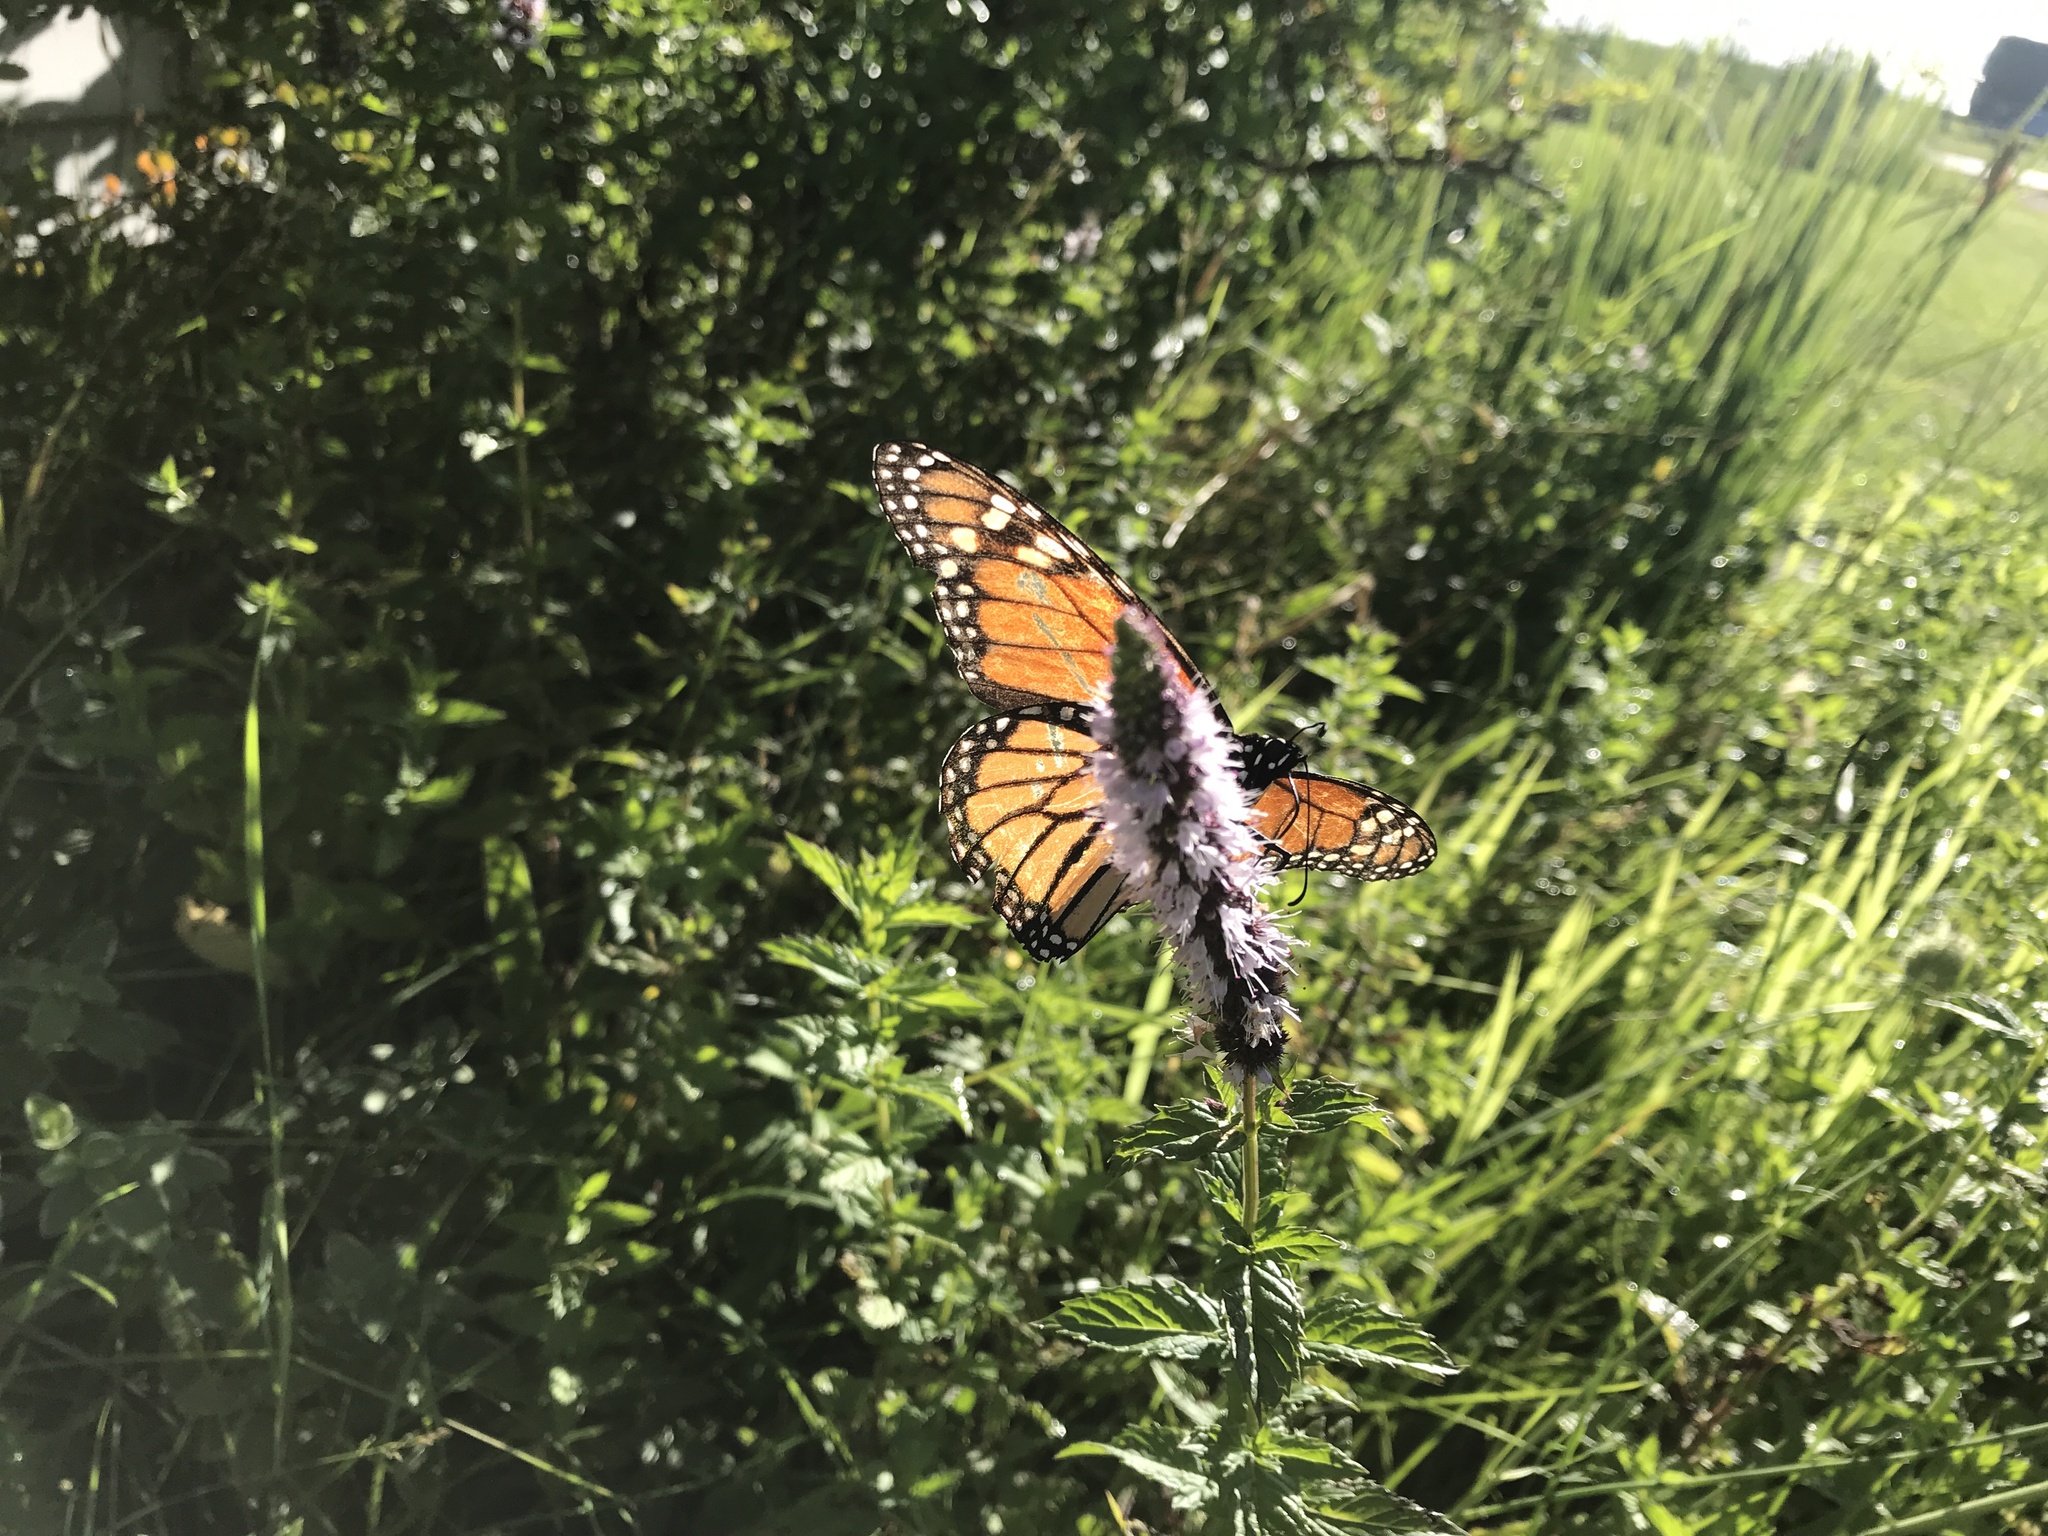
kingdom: Animalia
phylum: Arthropoda
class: Insecta
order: Lepidoptera
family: Nymphalidae
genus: Danaus
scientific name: Danaus plexippus
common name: Monarch
